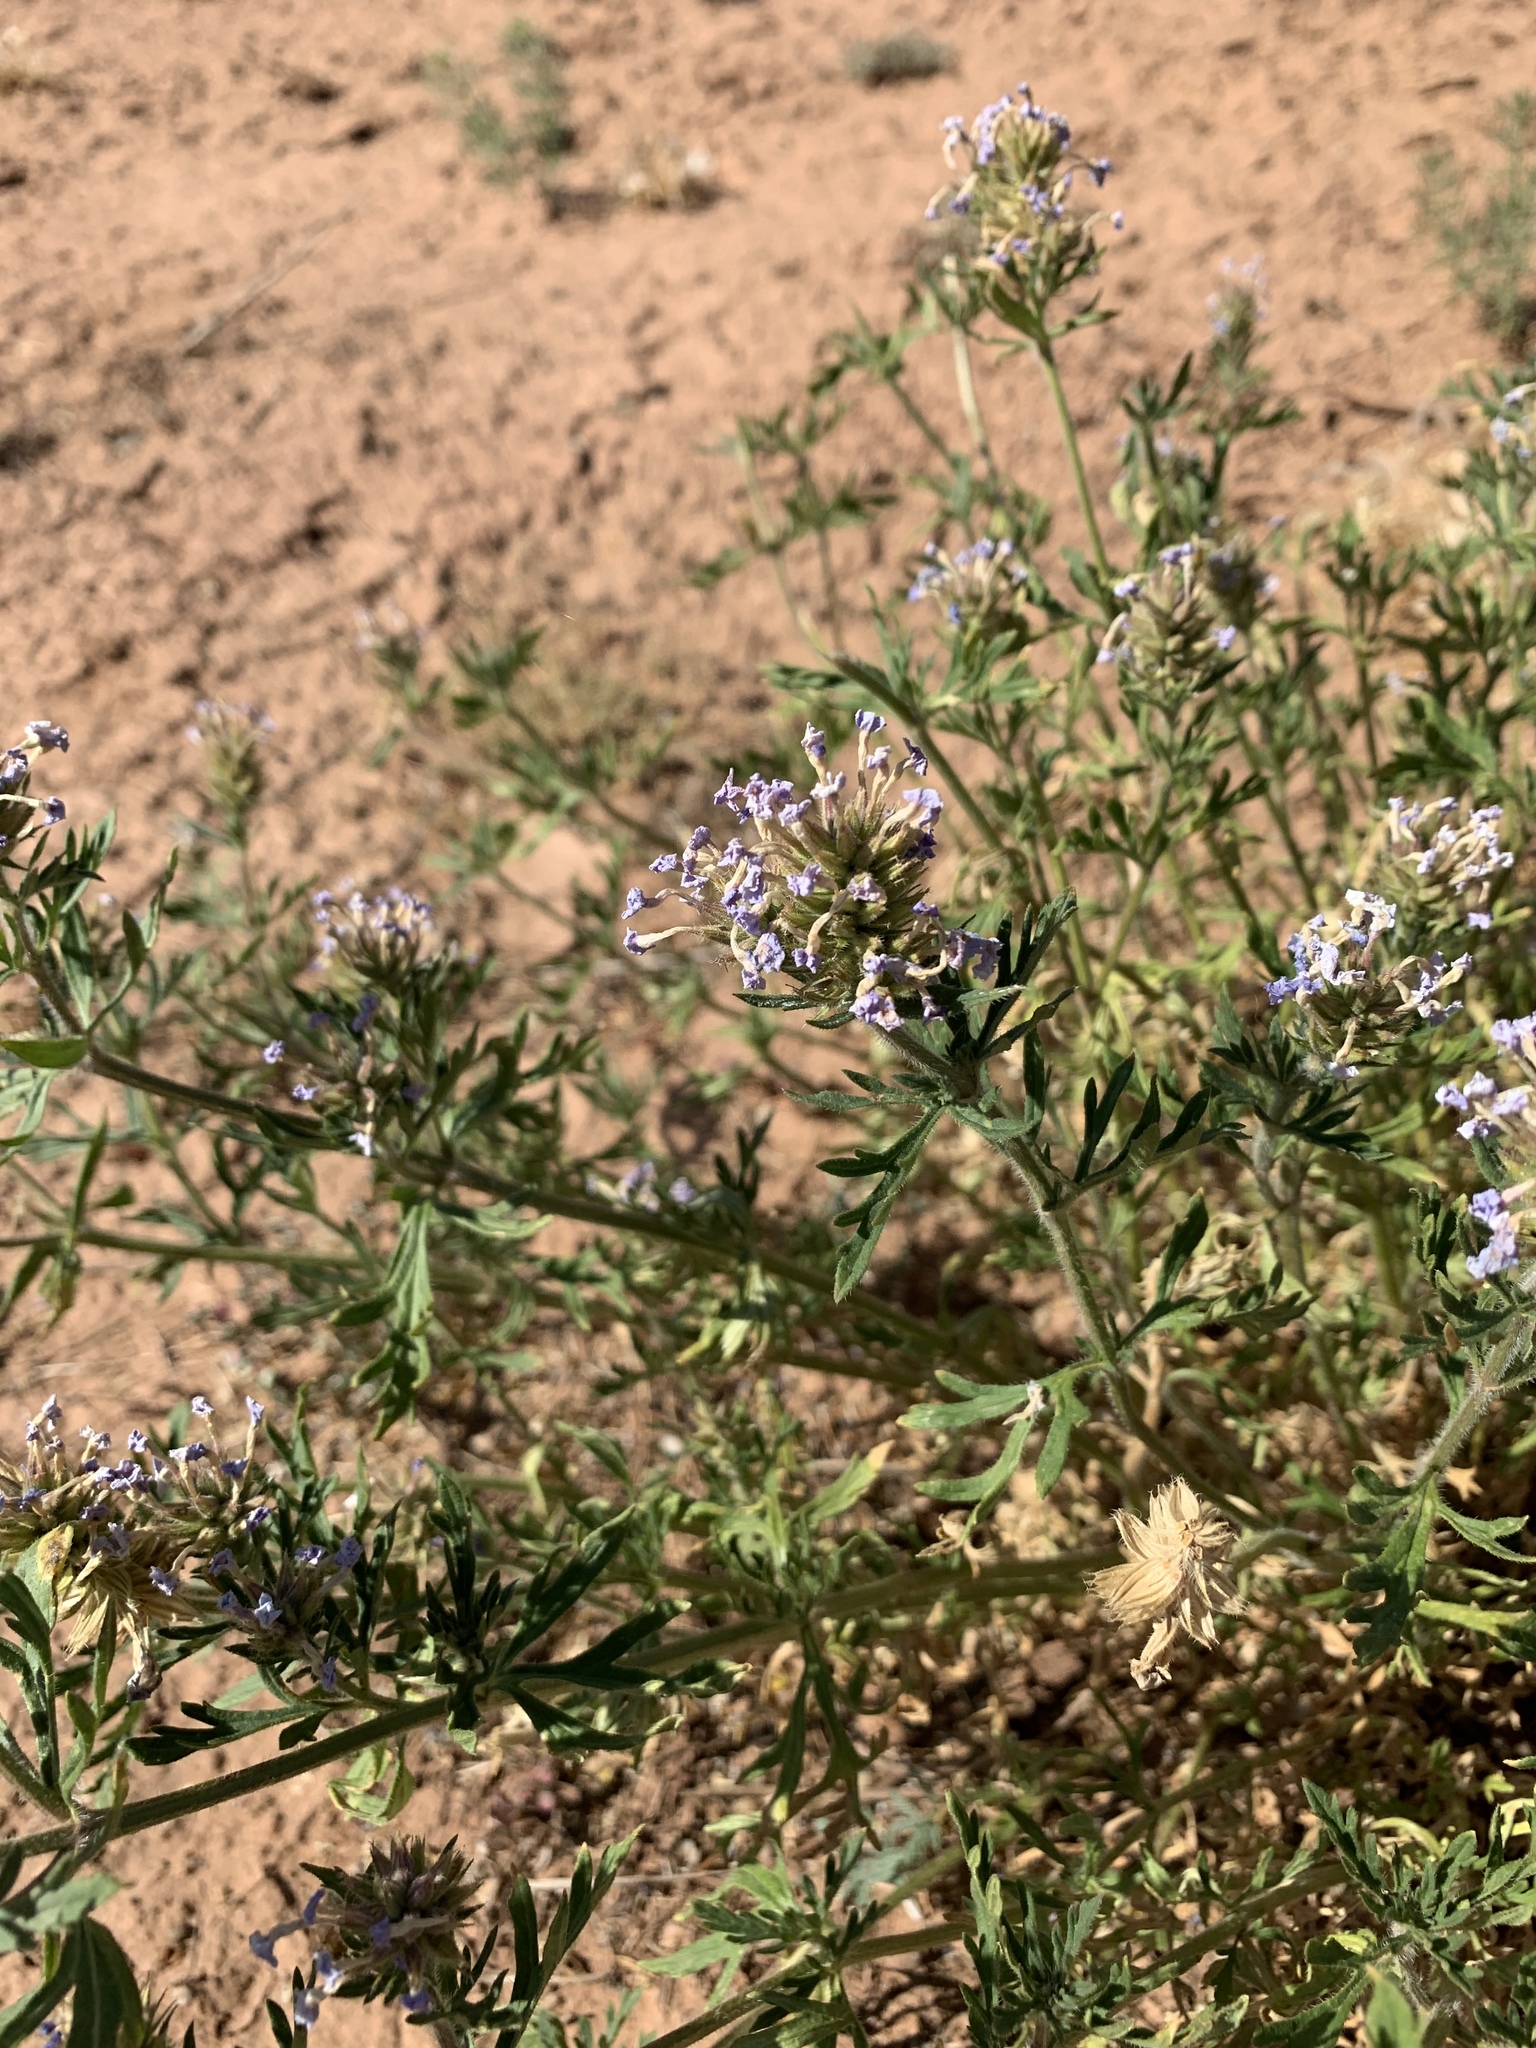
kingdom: Plantae
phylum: Tracheophyta
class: Magnoliopsida
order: Lamiales
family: Verbenaceae
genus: Verbena
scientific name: Verbena bipinnatifida
